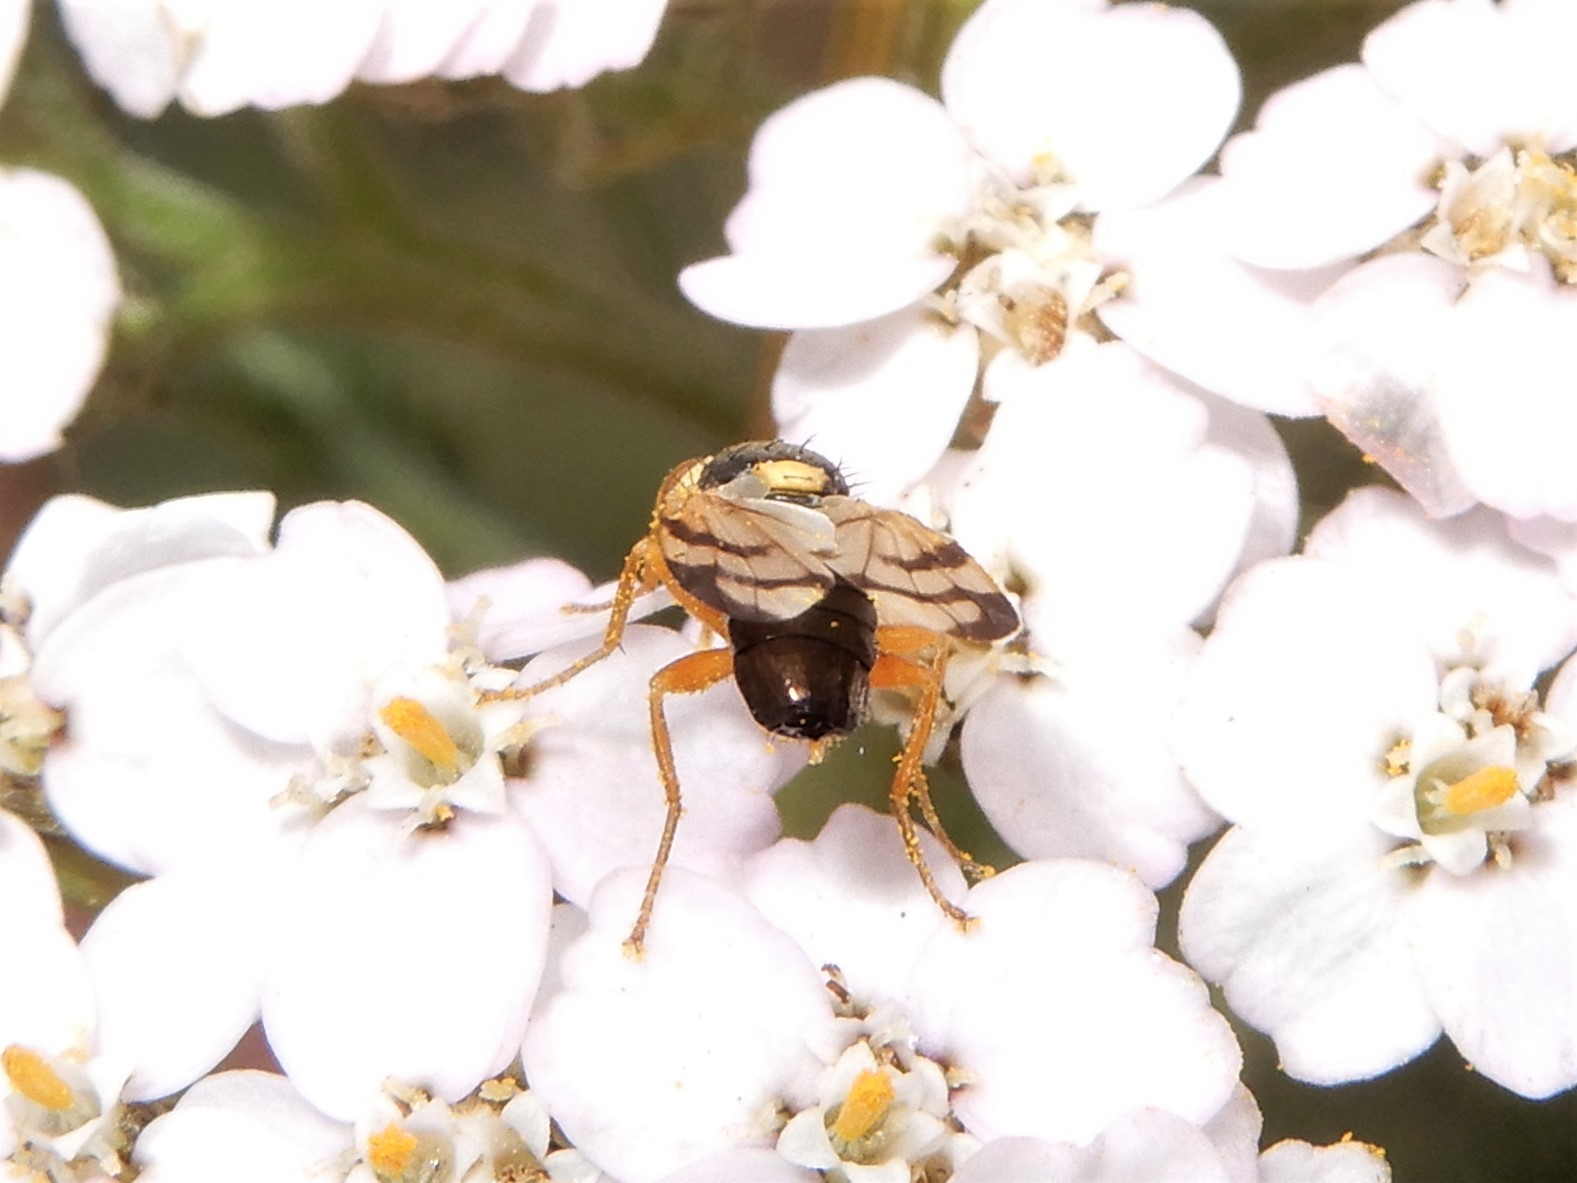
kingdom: Animalia
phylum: Arthropoda
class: Insecta
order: Diptera
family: Tephritidae
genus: Urophora
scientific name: Urophora stylata
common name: Fruit fly
